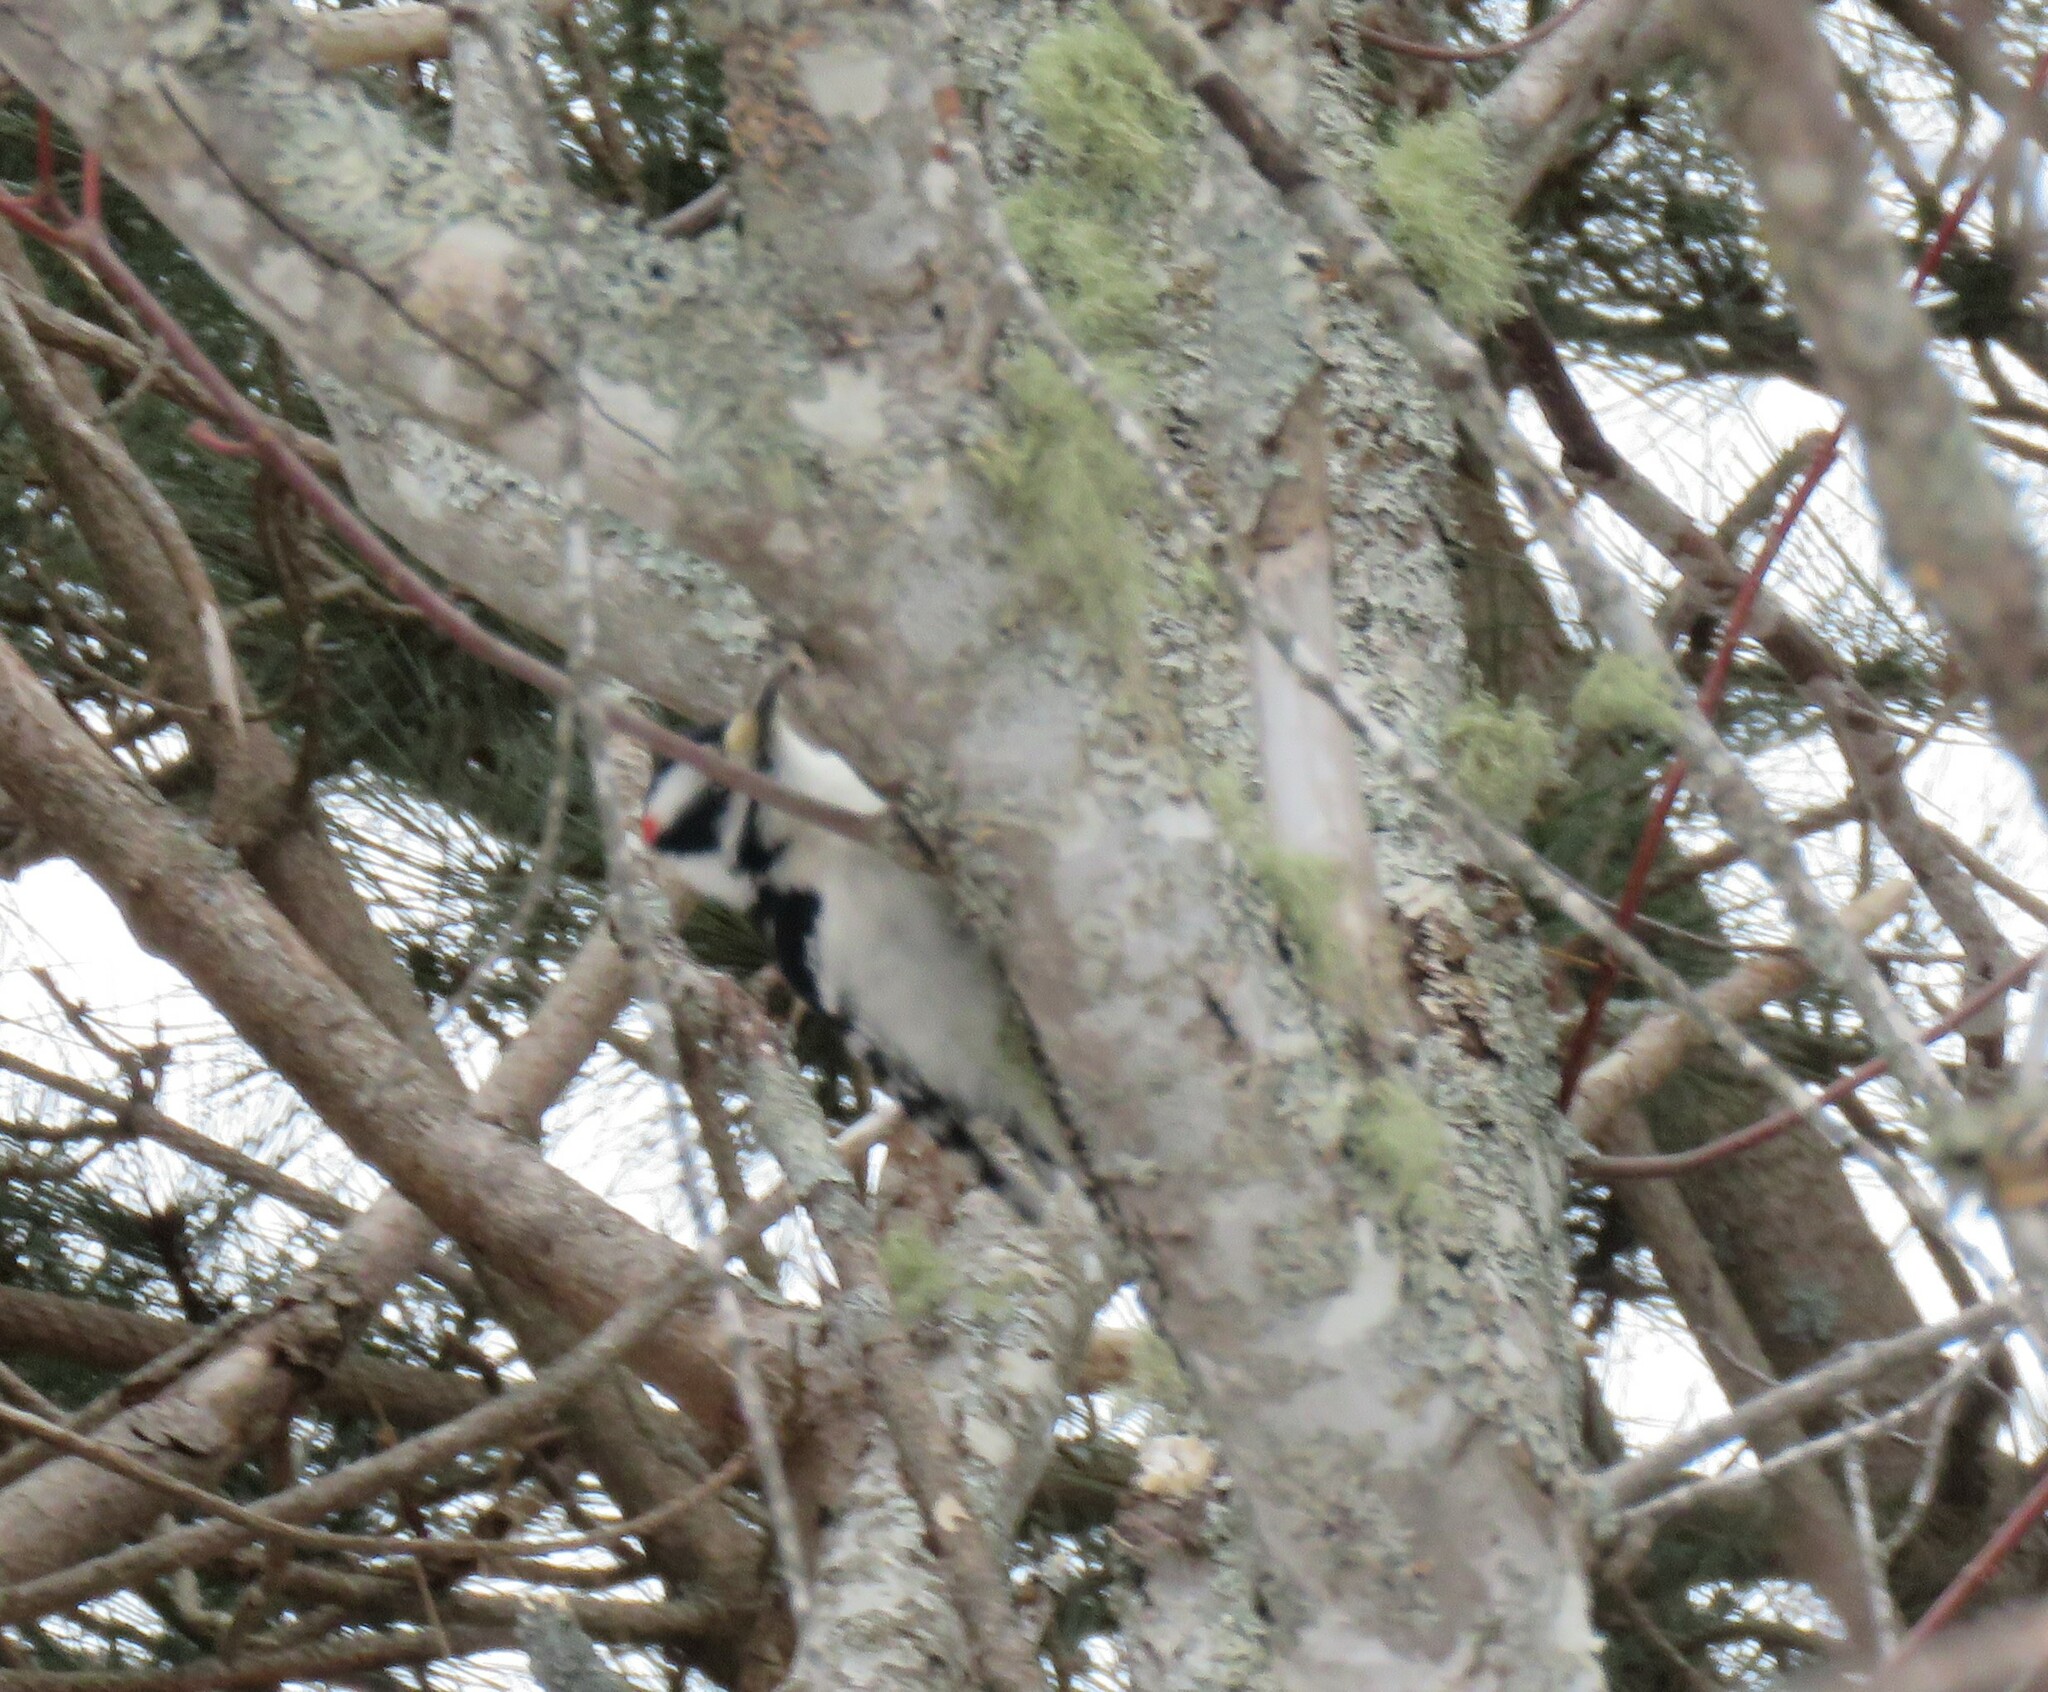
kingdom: Animalia
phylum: Chordata
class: Aves
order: Piciformes
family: Picidae
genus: Dryobates
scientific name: Dryobates pubescens
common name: Downy woodpecker
